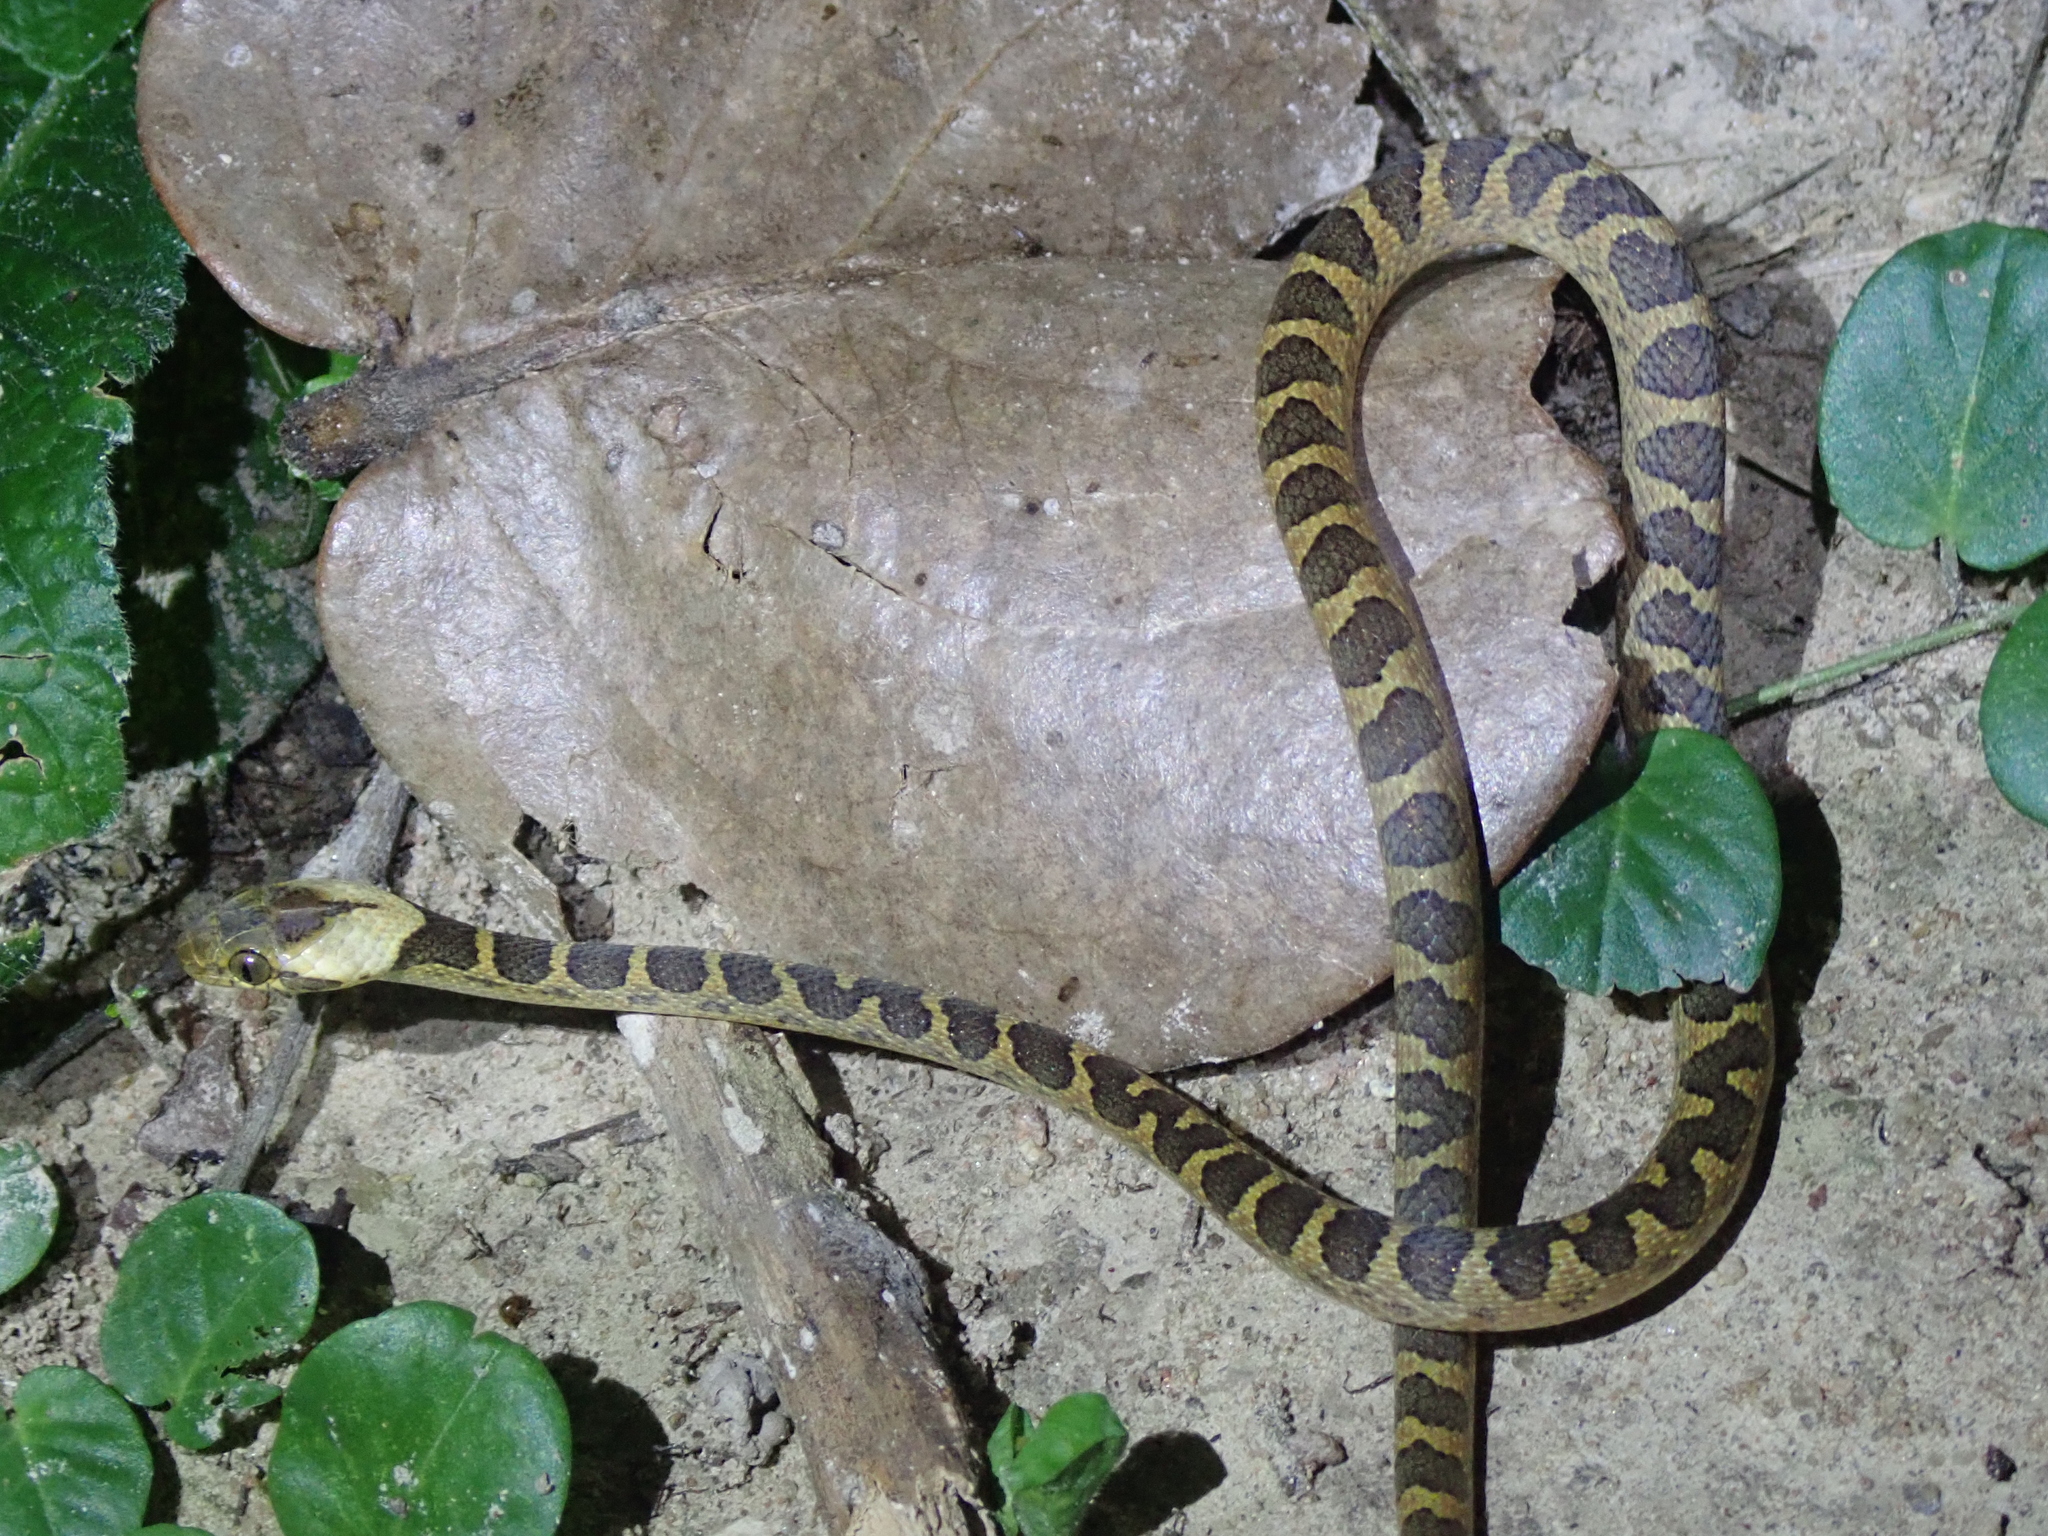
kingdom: Animalia
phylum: Chordata
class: Squamata
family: Colubridae
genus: Leptodeira
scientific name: Leptodeira annulata
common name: Banded cat-eyed snake
